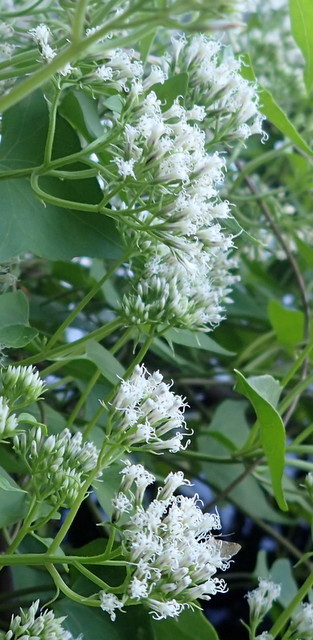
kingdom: Plantae
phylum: Tracheophyta
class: Magnoliopsida
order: Asterales
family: Asteraceae
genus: Mikania
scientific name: Mikania scandens
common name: Climbing hempvine
